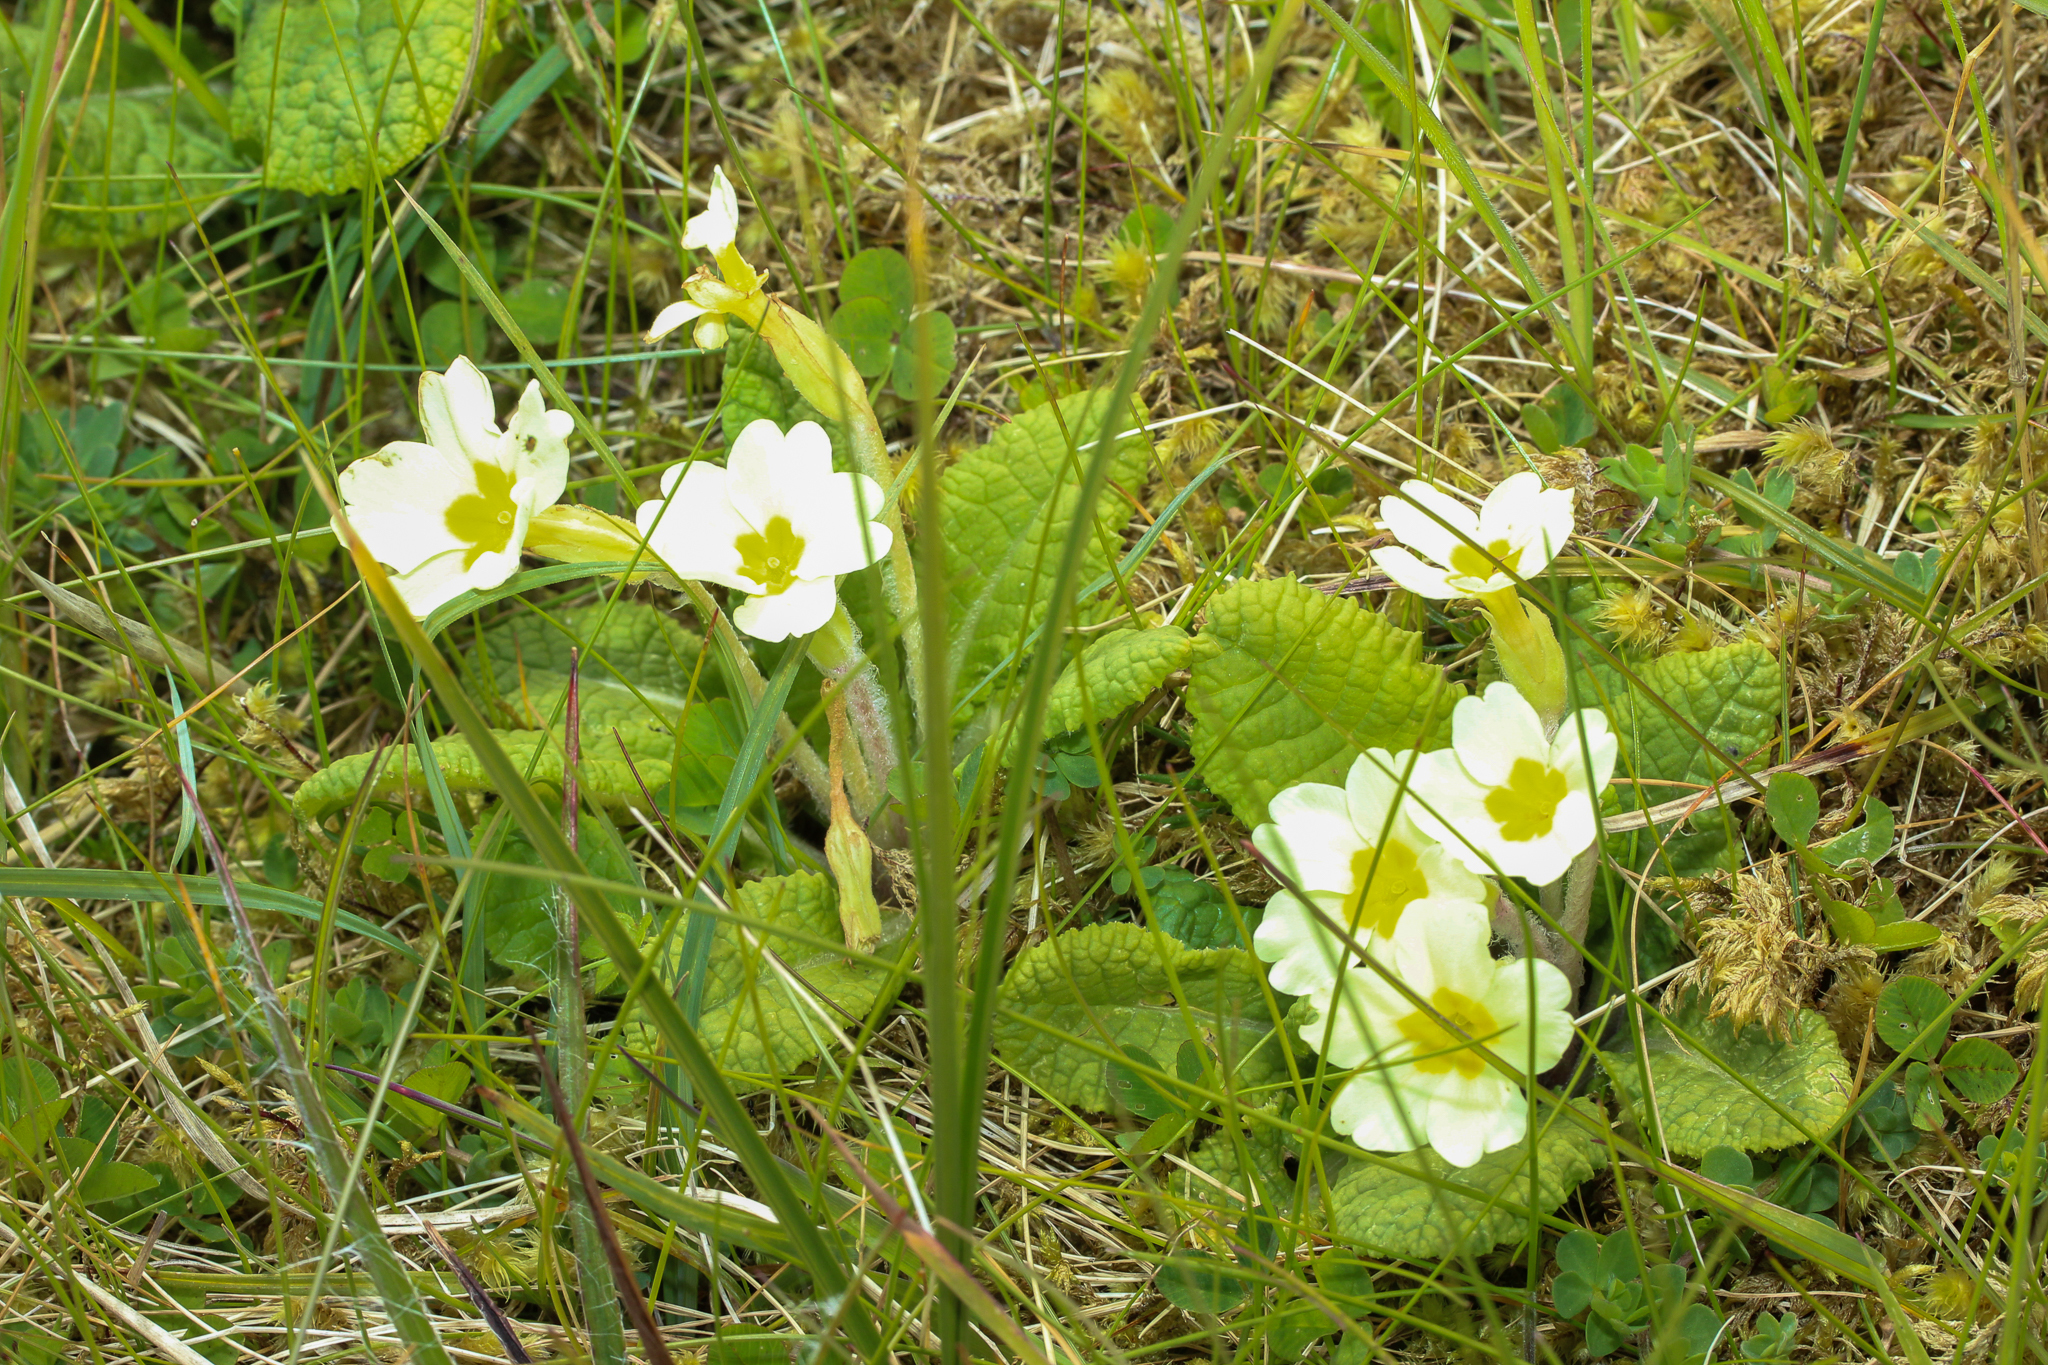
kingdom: Plantae
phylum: Tracheophyta
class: Magnoliopsida
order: Ericales
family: Primulaceae
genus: Primula
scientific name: Primula vulgaris
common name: Primrose
